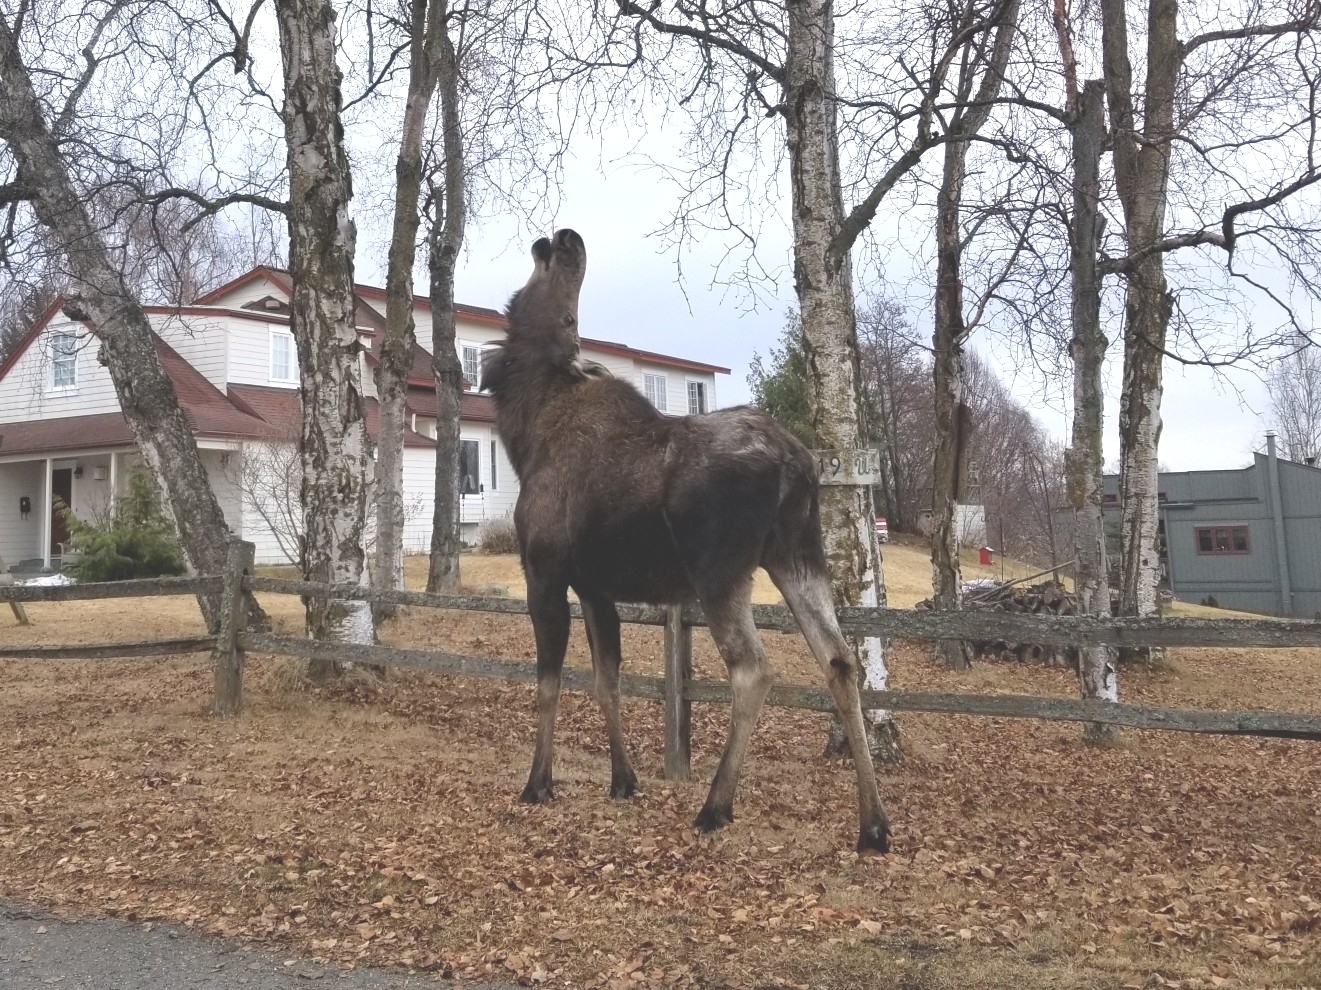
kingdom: Animalia
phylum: Chordata
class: Mammalia
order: Artiodactyla
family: Cervidae
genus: Alces
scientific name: Alces alces
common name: Moose
